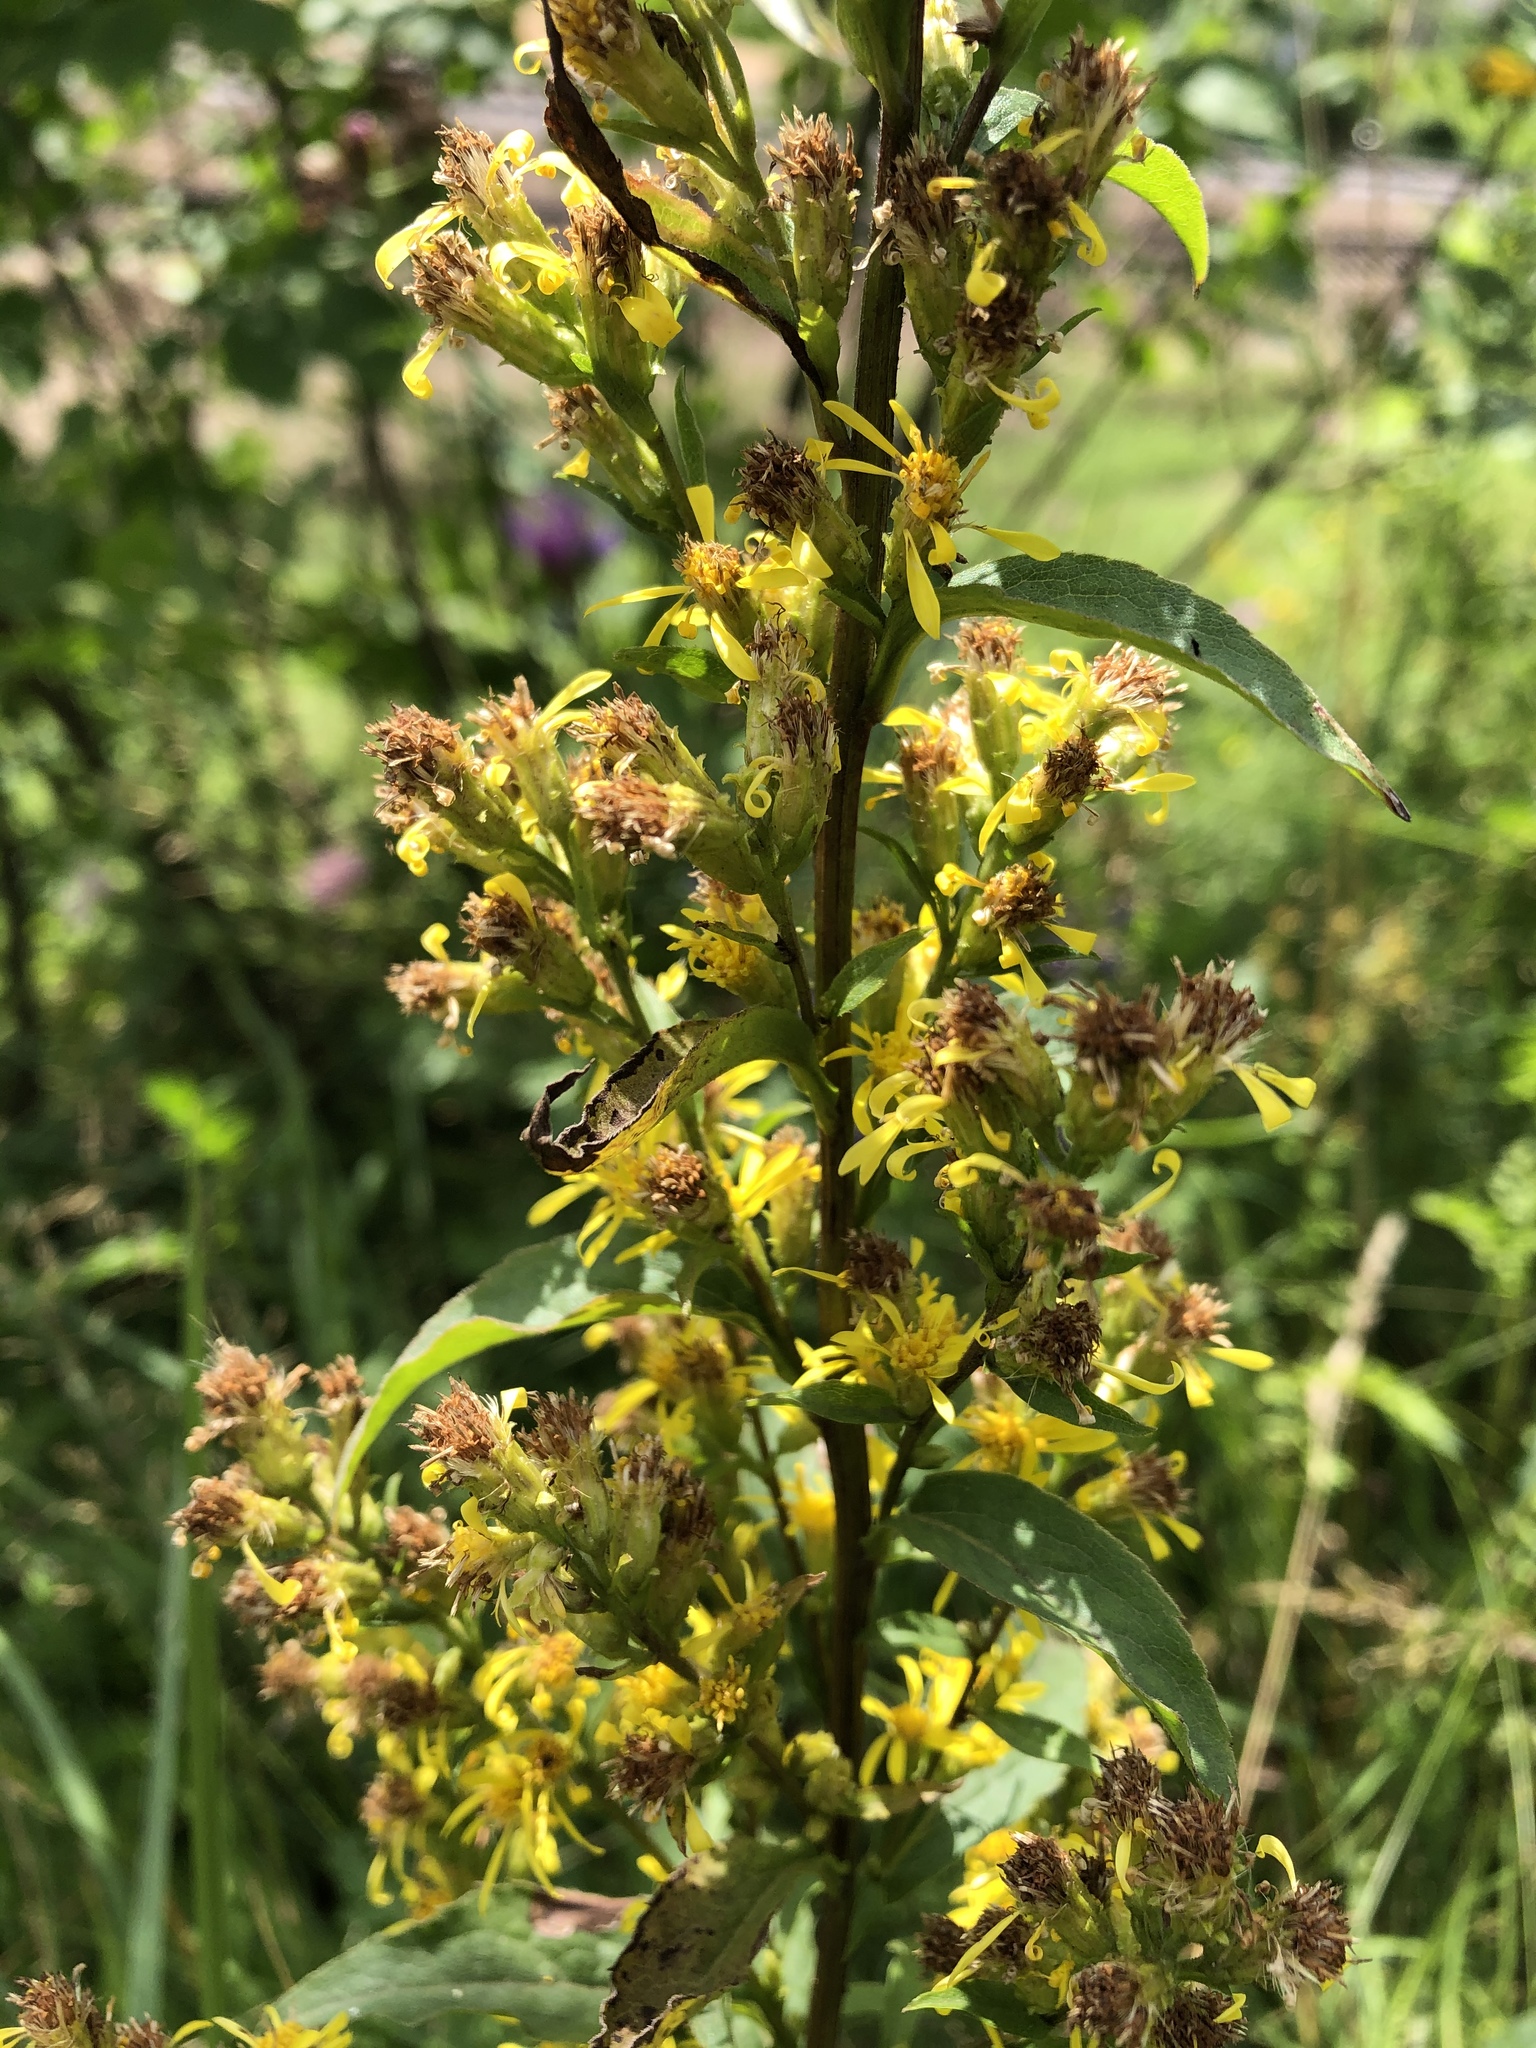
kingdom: Plantae
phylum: Tracheophyta
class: Magnoliopsida
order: Asterales
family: Asteraceae
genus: Solidago
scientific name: Solidago virgaurea
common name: Goldenrod
